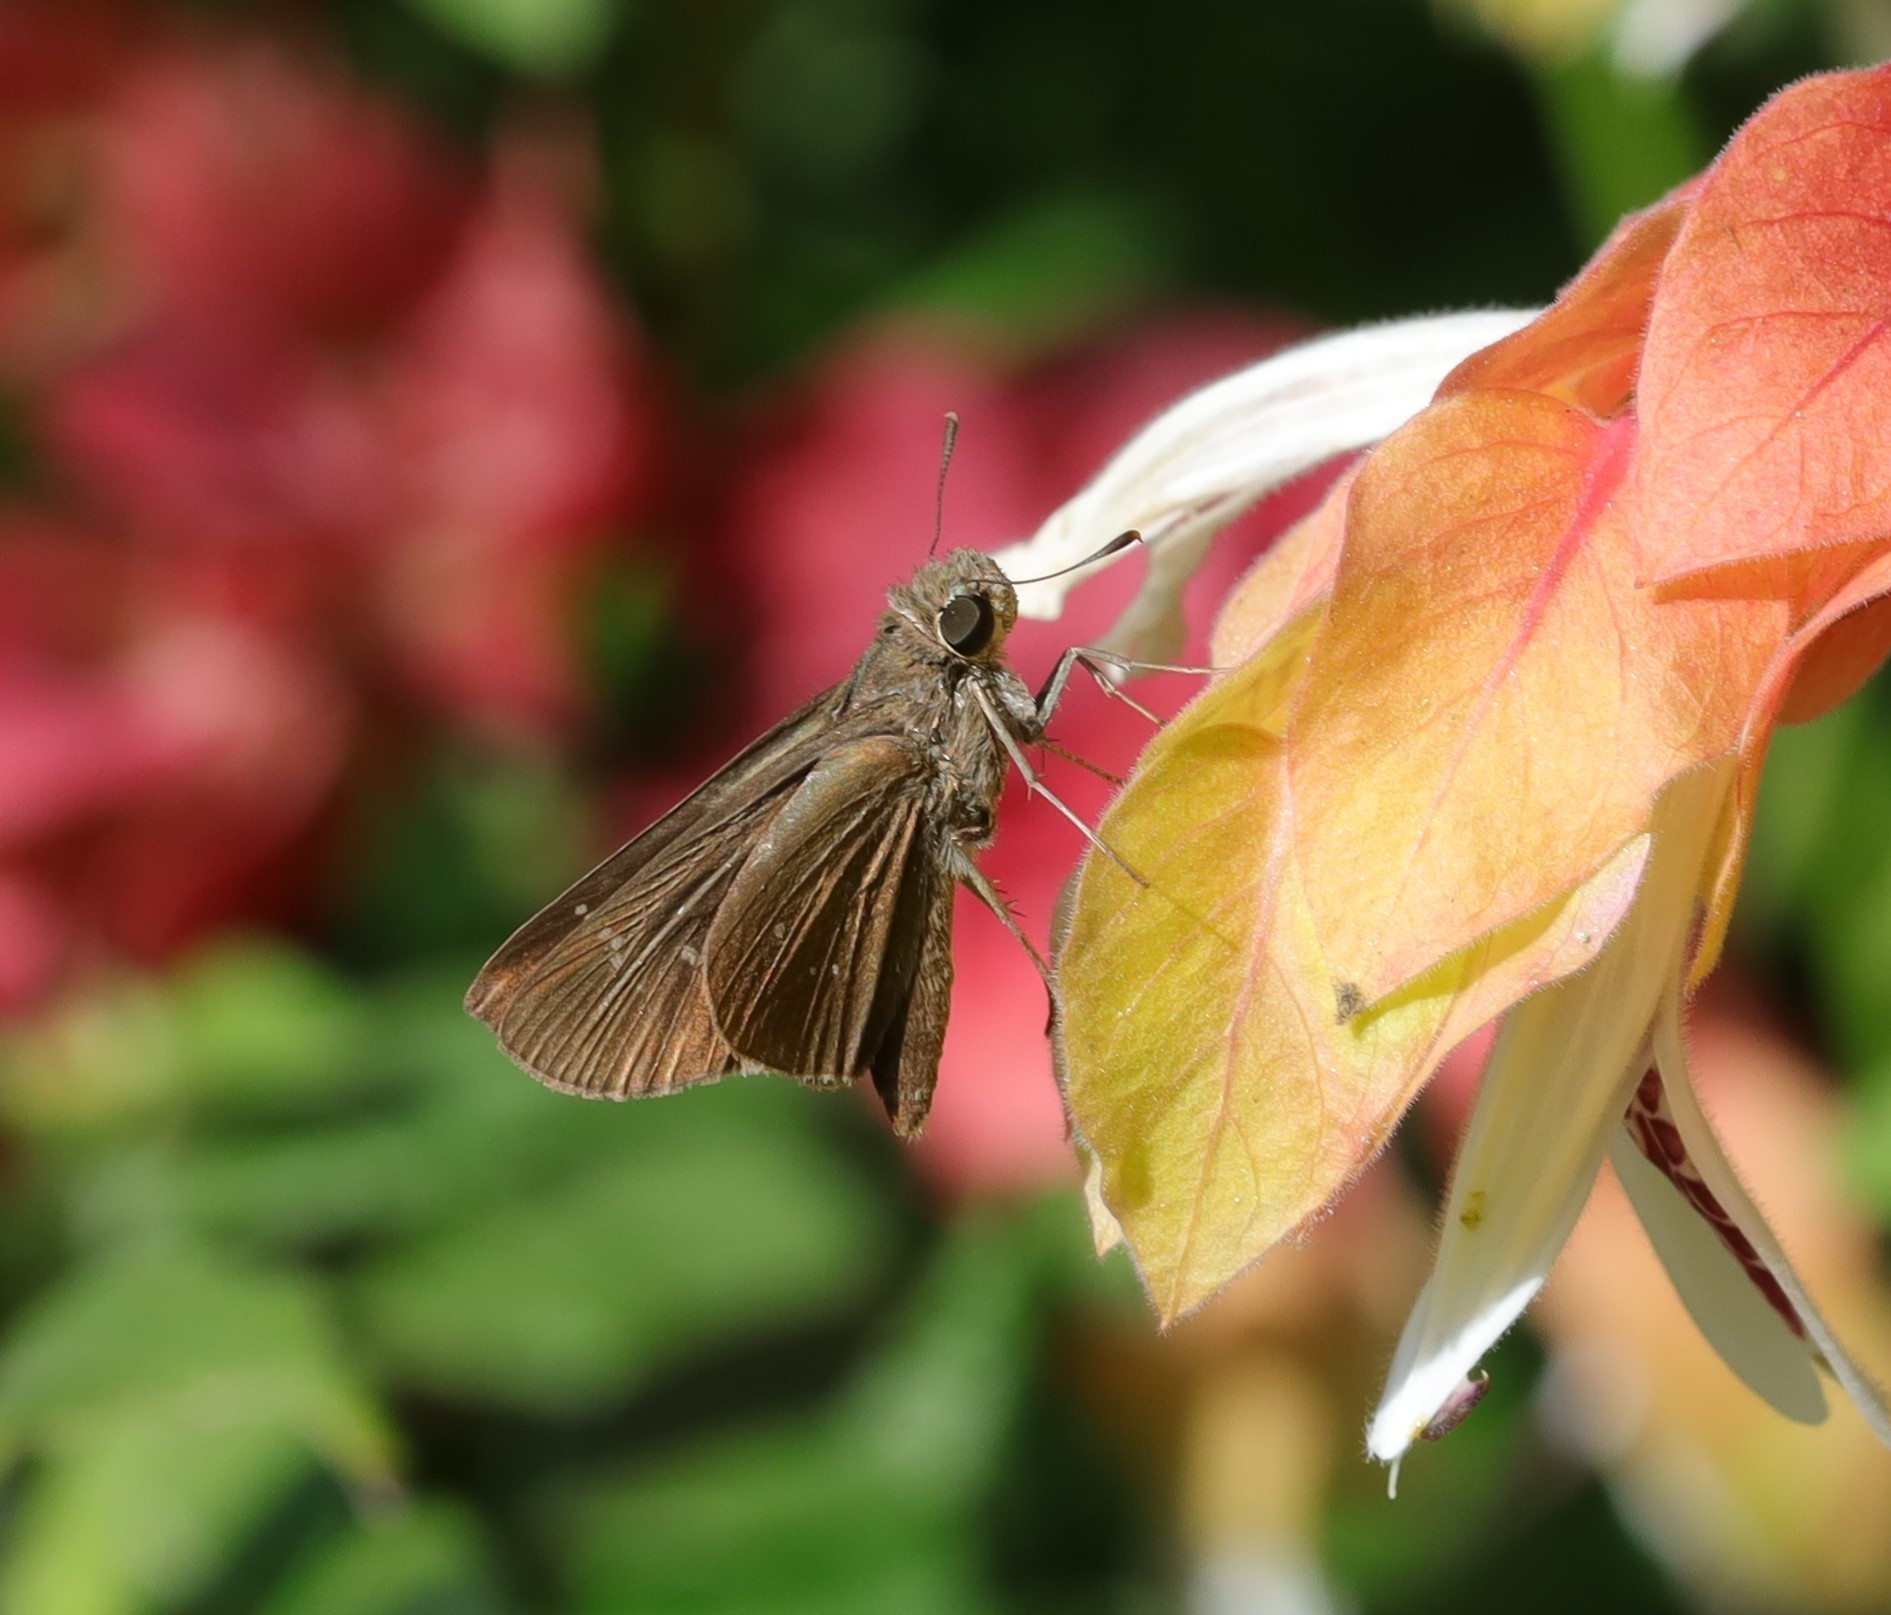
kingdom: Animalia
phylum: Arthropoda
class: Insecta
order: Lepidoptera
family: Hesperiidae
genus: Baoris
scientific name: Baoris fatuellus
